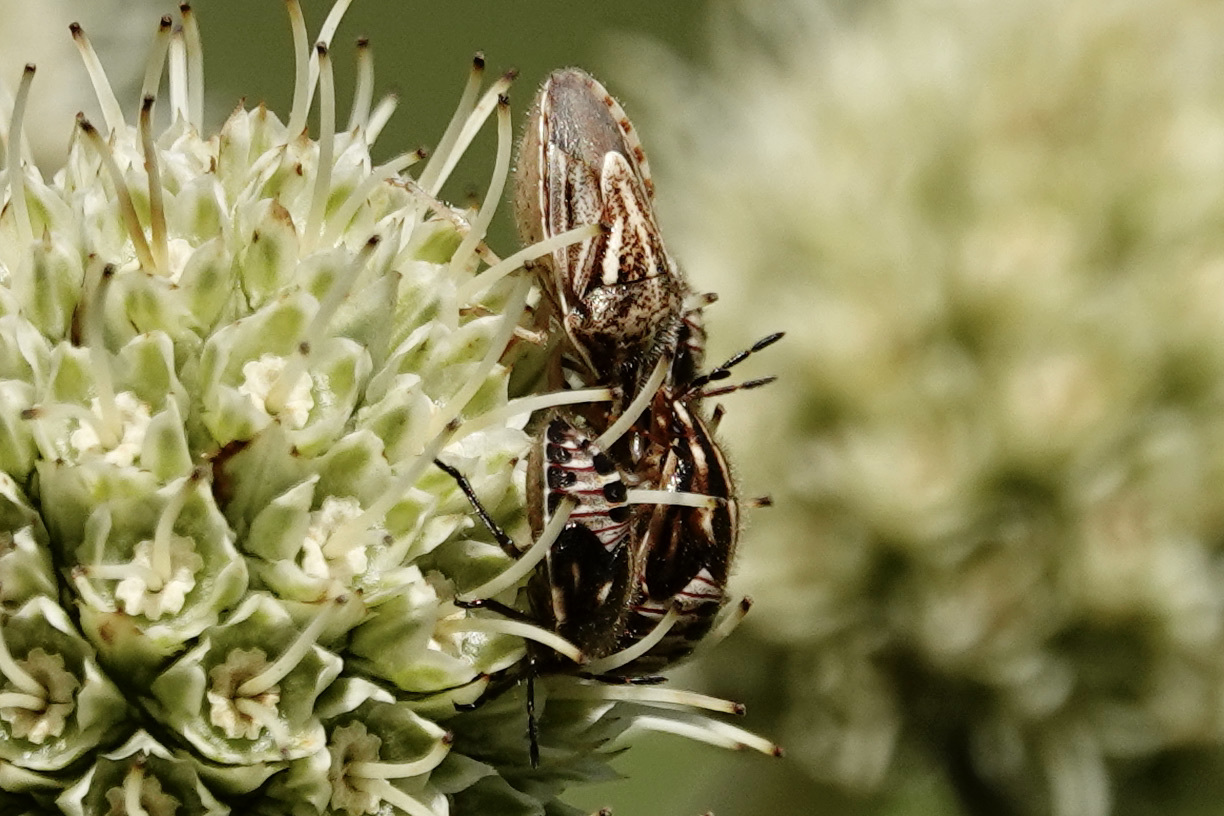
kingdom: Animalia
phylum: Arthropoda
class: Insecta
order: Hemiptera
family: Pentatomidae
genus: Trichopepla
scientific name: Trichopepla semivittata
